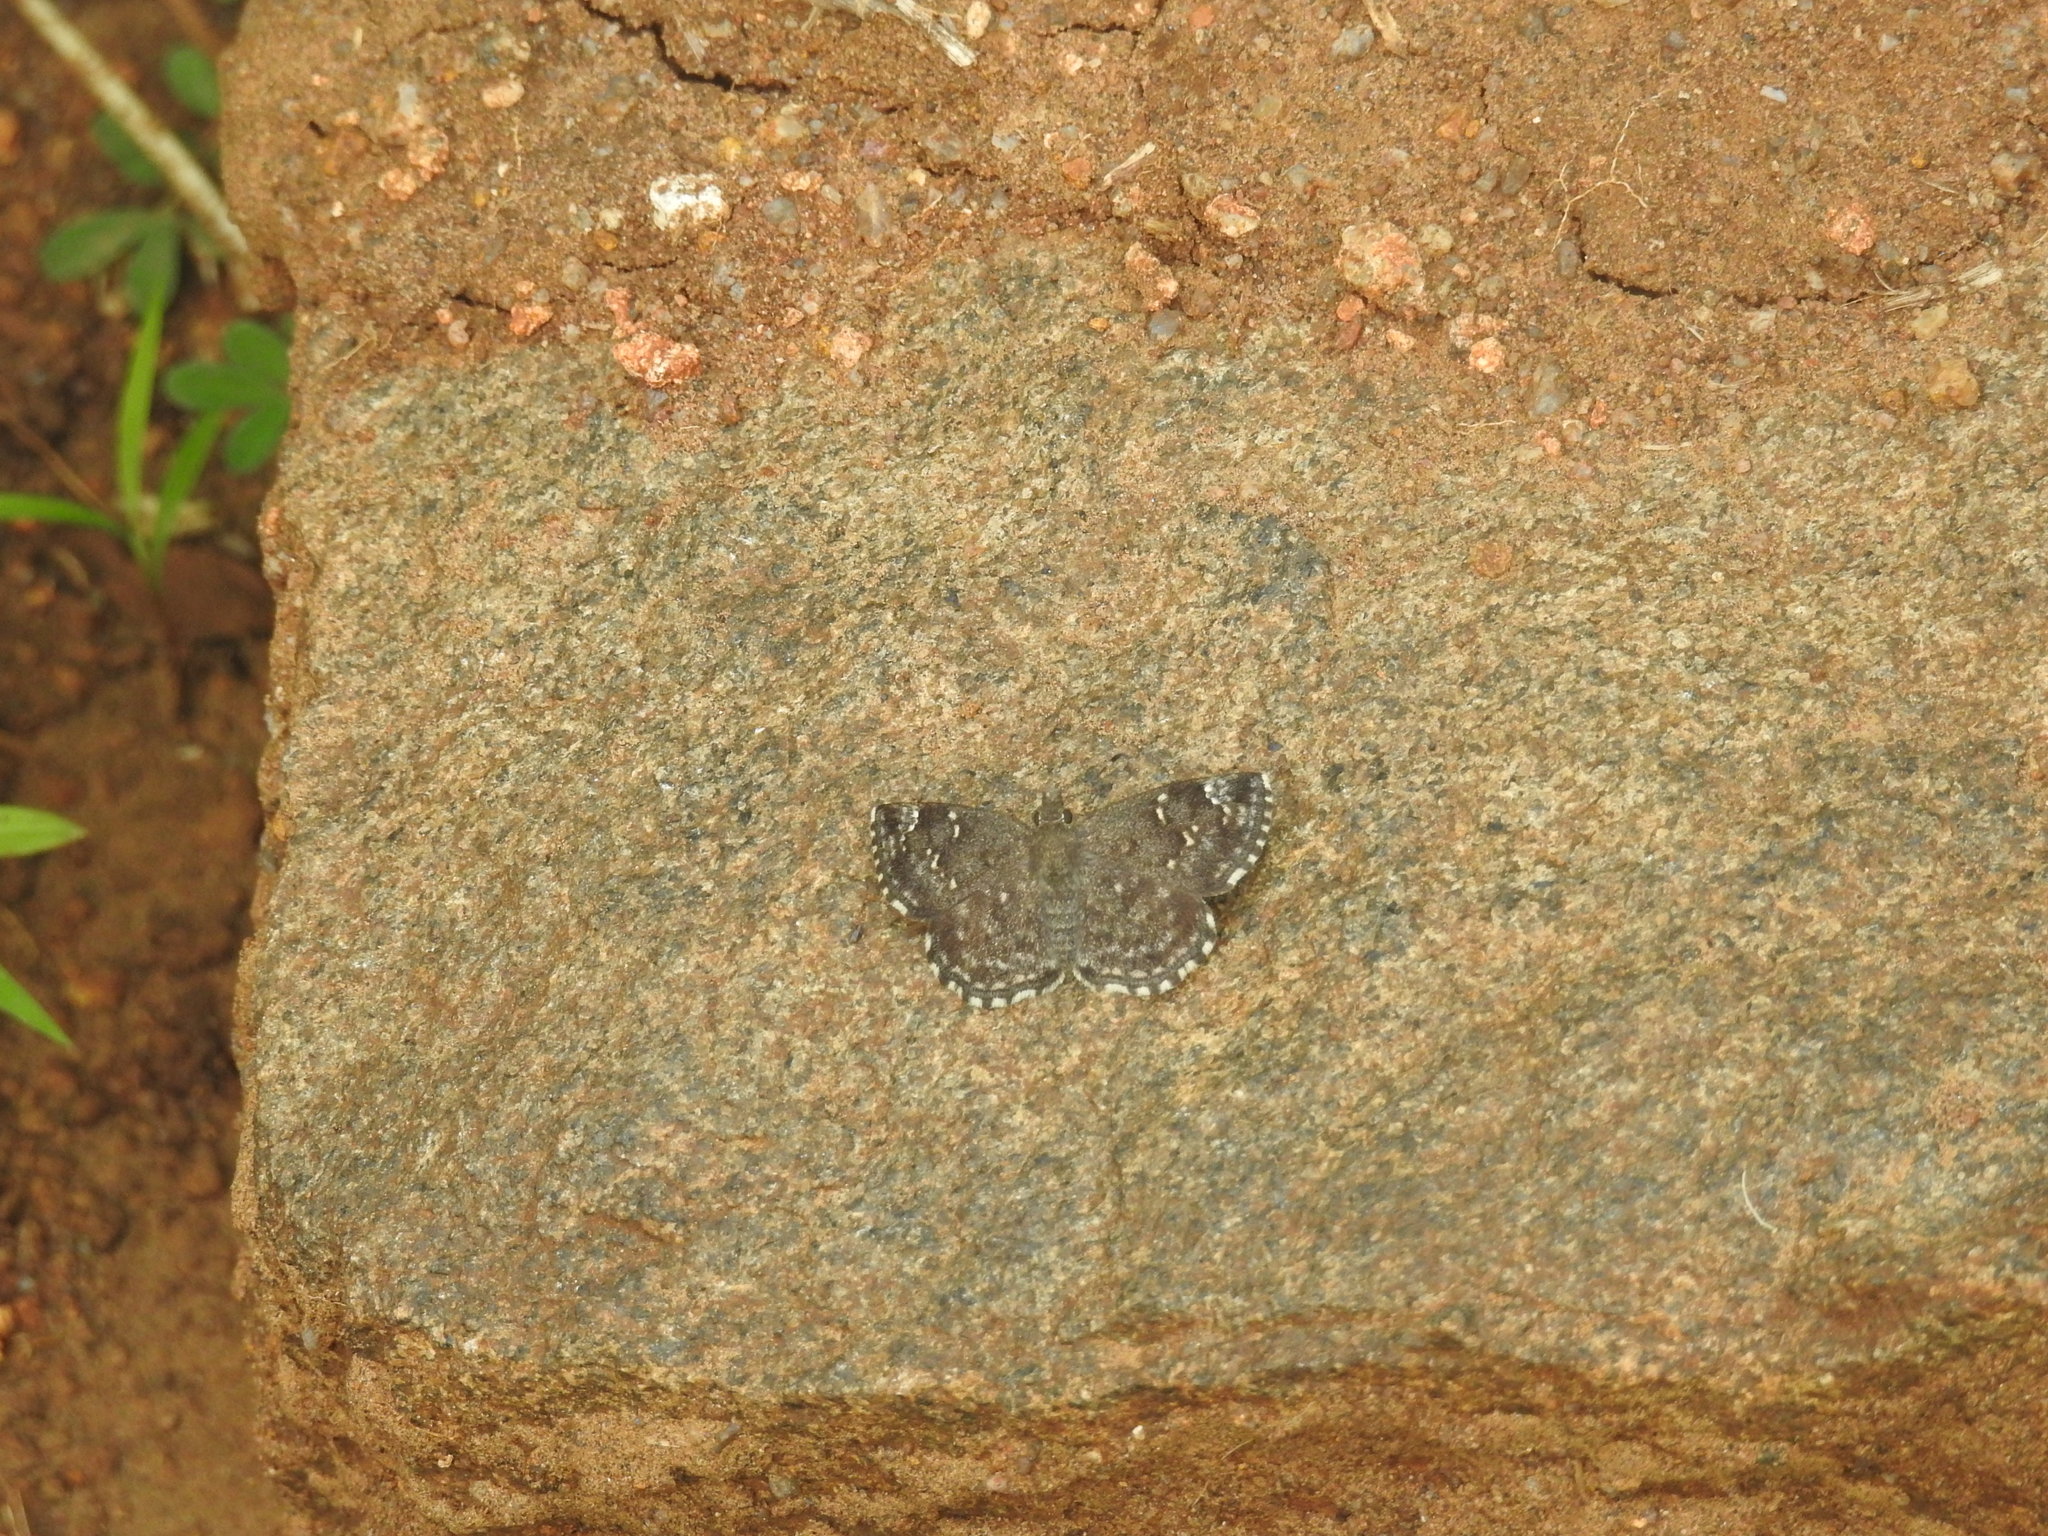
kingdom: Animalia
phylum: Arthropoda
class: Insecta
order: Lepidoptera
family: Hesperiidae
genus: Sarangesa
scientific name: Sarangesa purendra
